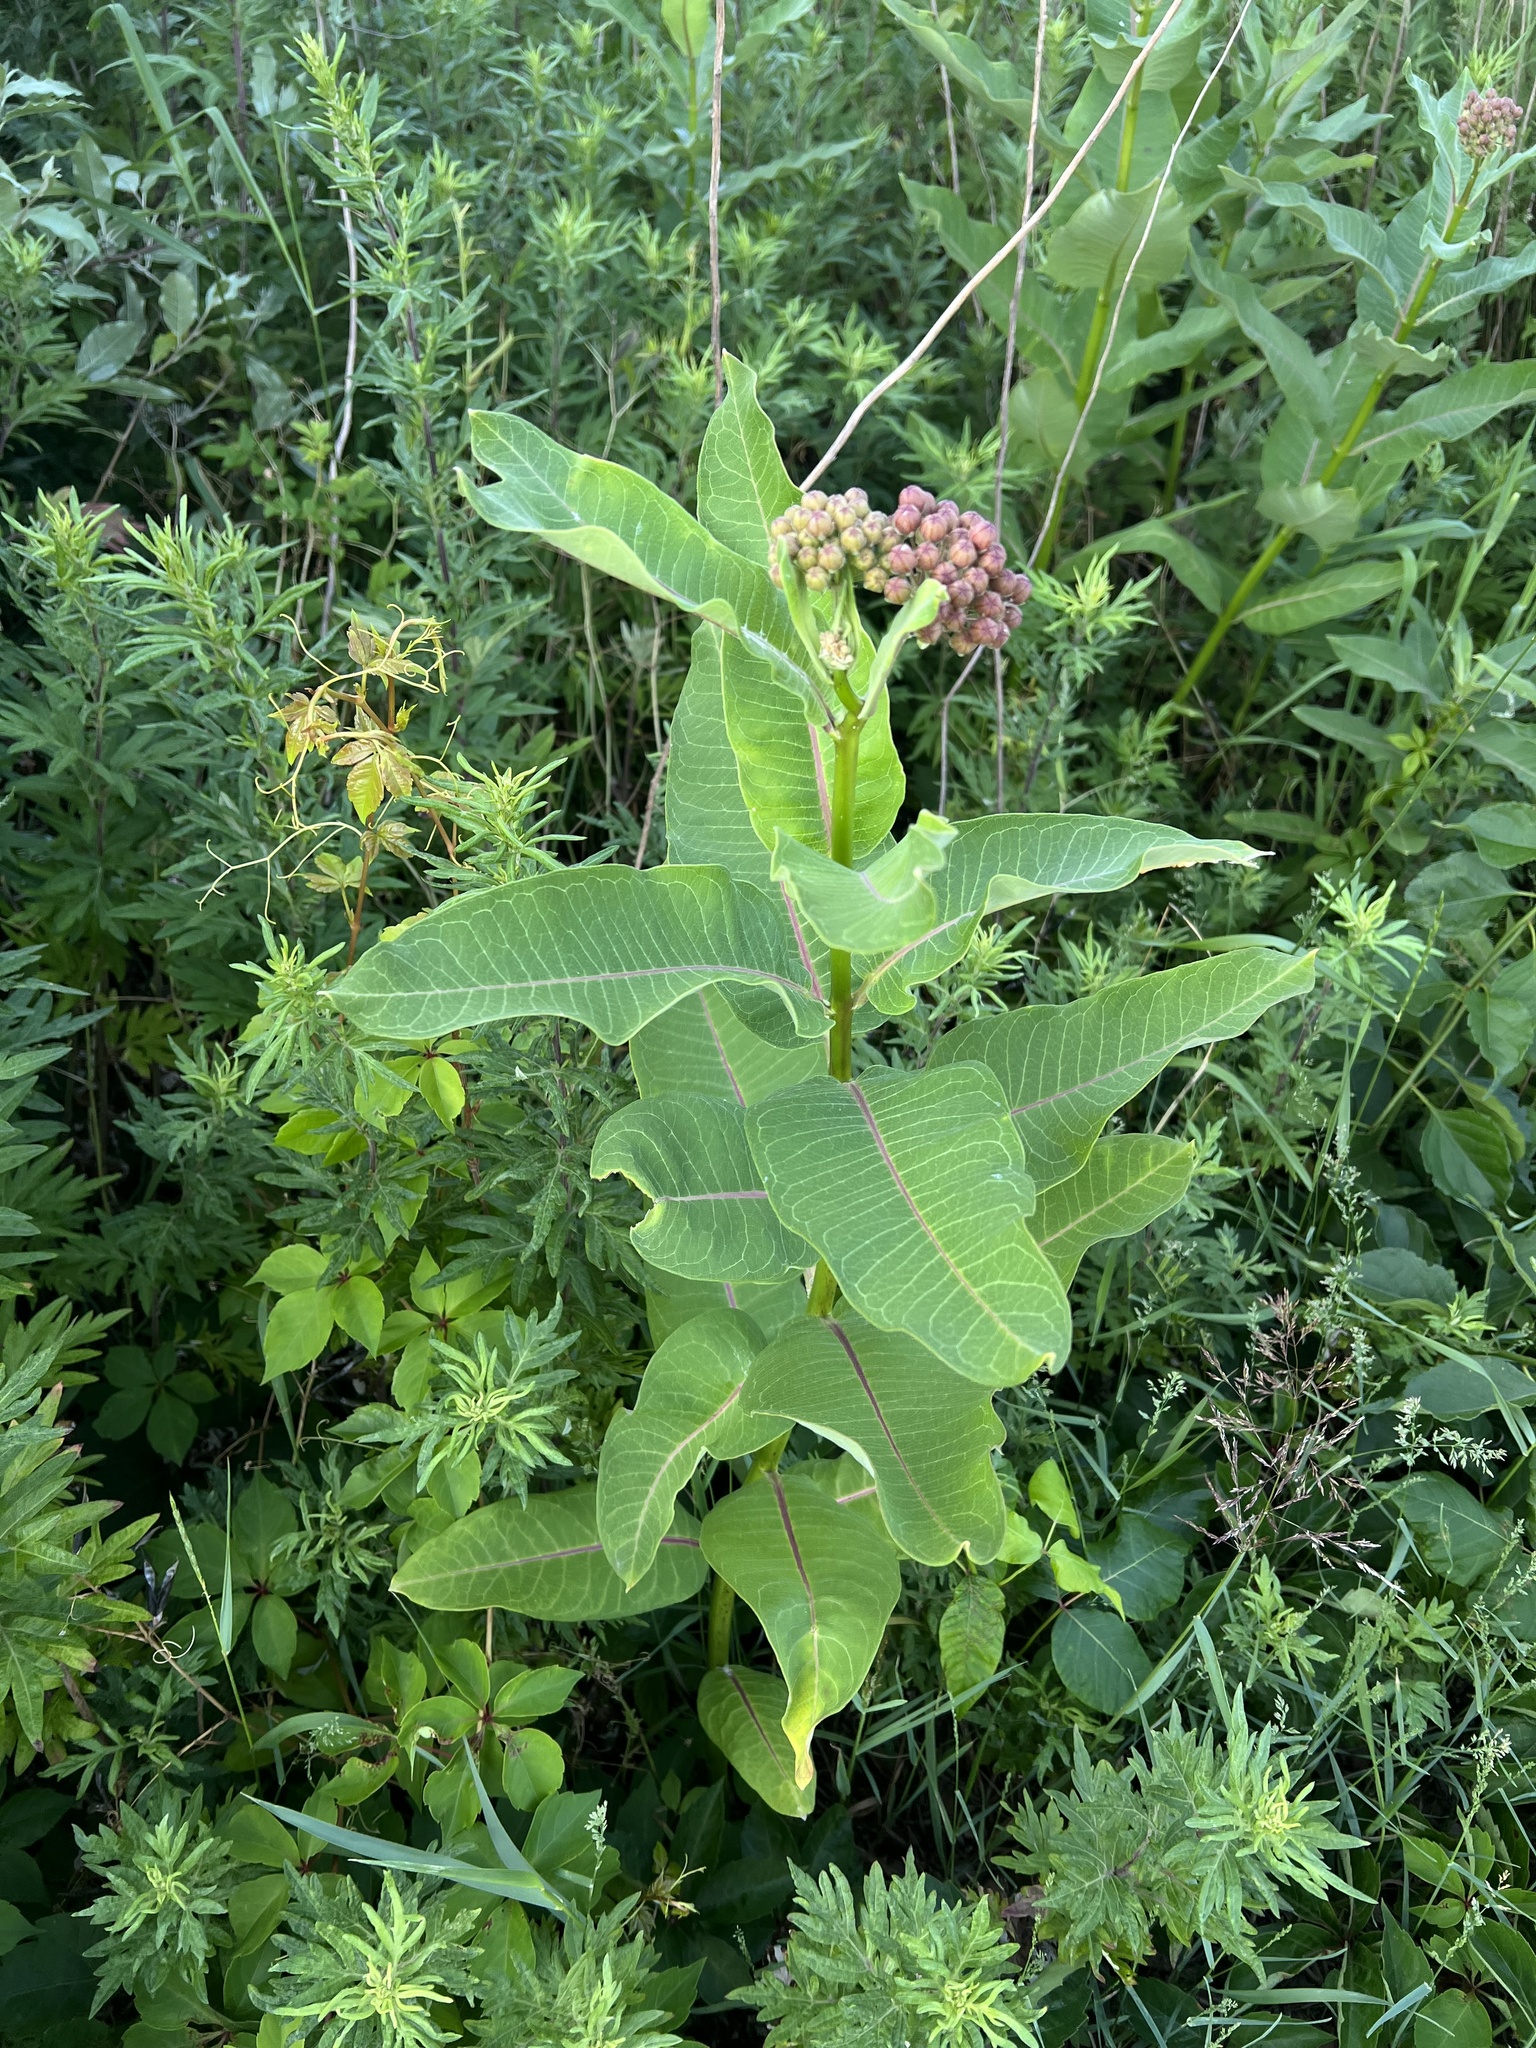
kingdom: Plantae
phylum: Tracheophyta
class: Magnoliopsida
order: Gentianales
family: Apocynaceae
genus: Asclepias
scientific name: Asclepias syriaca
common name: Common milkweed
